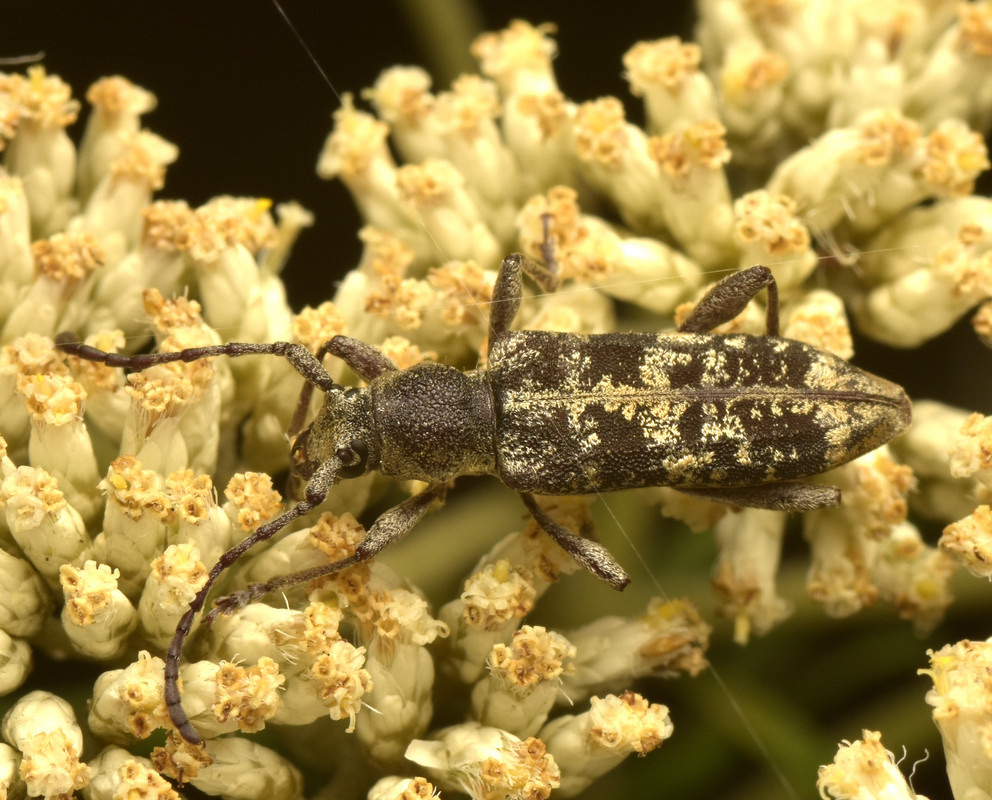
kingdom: Animalia
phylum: Arthropoda
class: Insecta
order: Coleoptera
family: Cerambycidae
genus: Pempsamacra
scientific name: Pempsamacra dispersa
